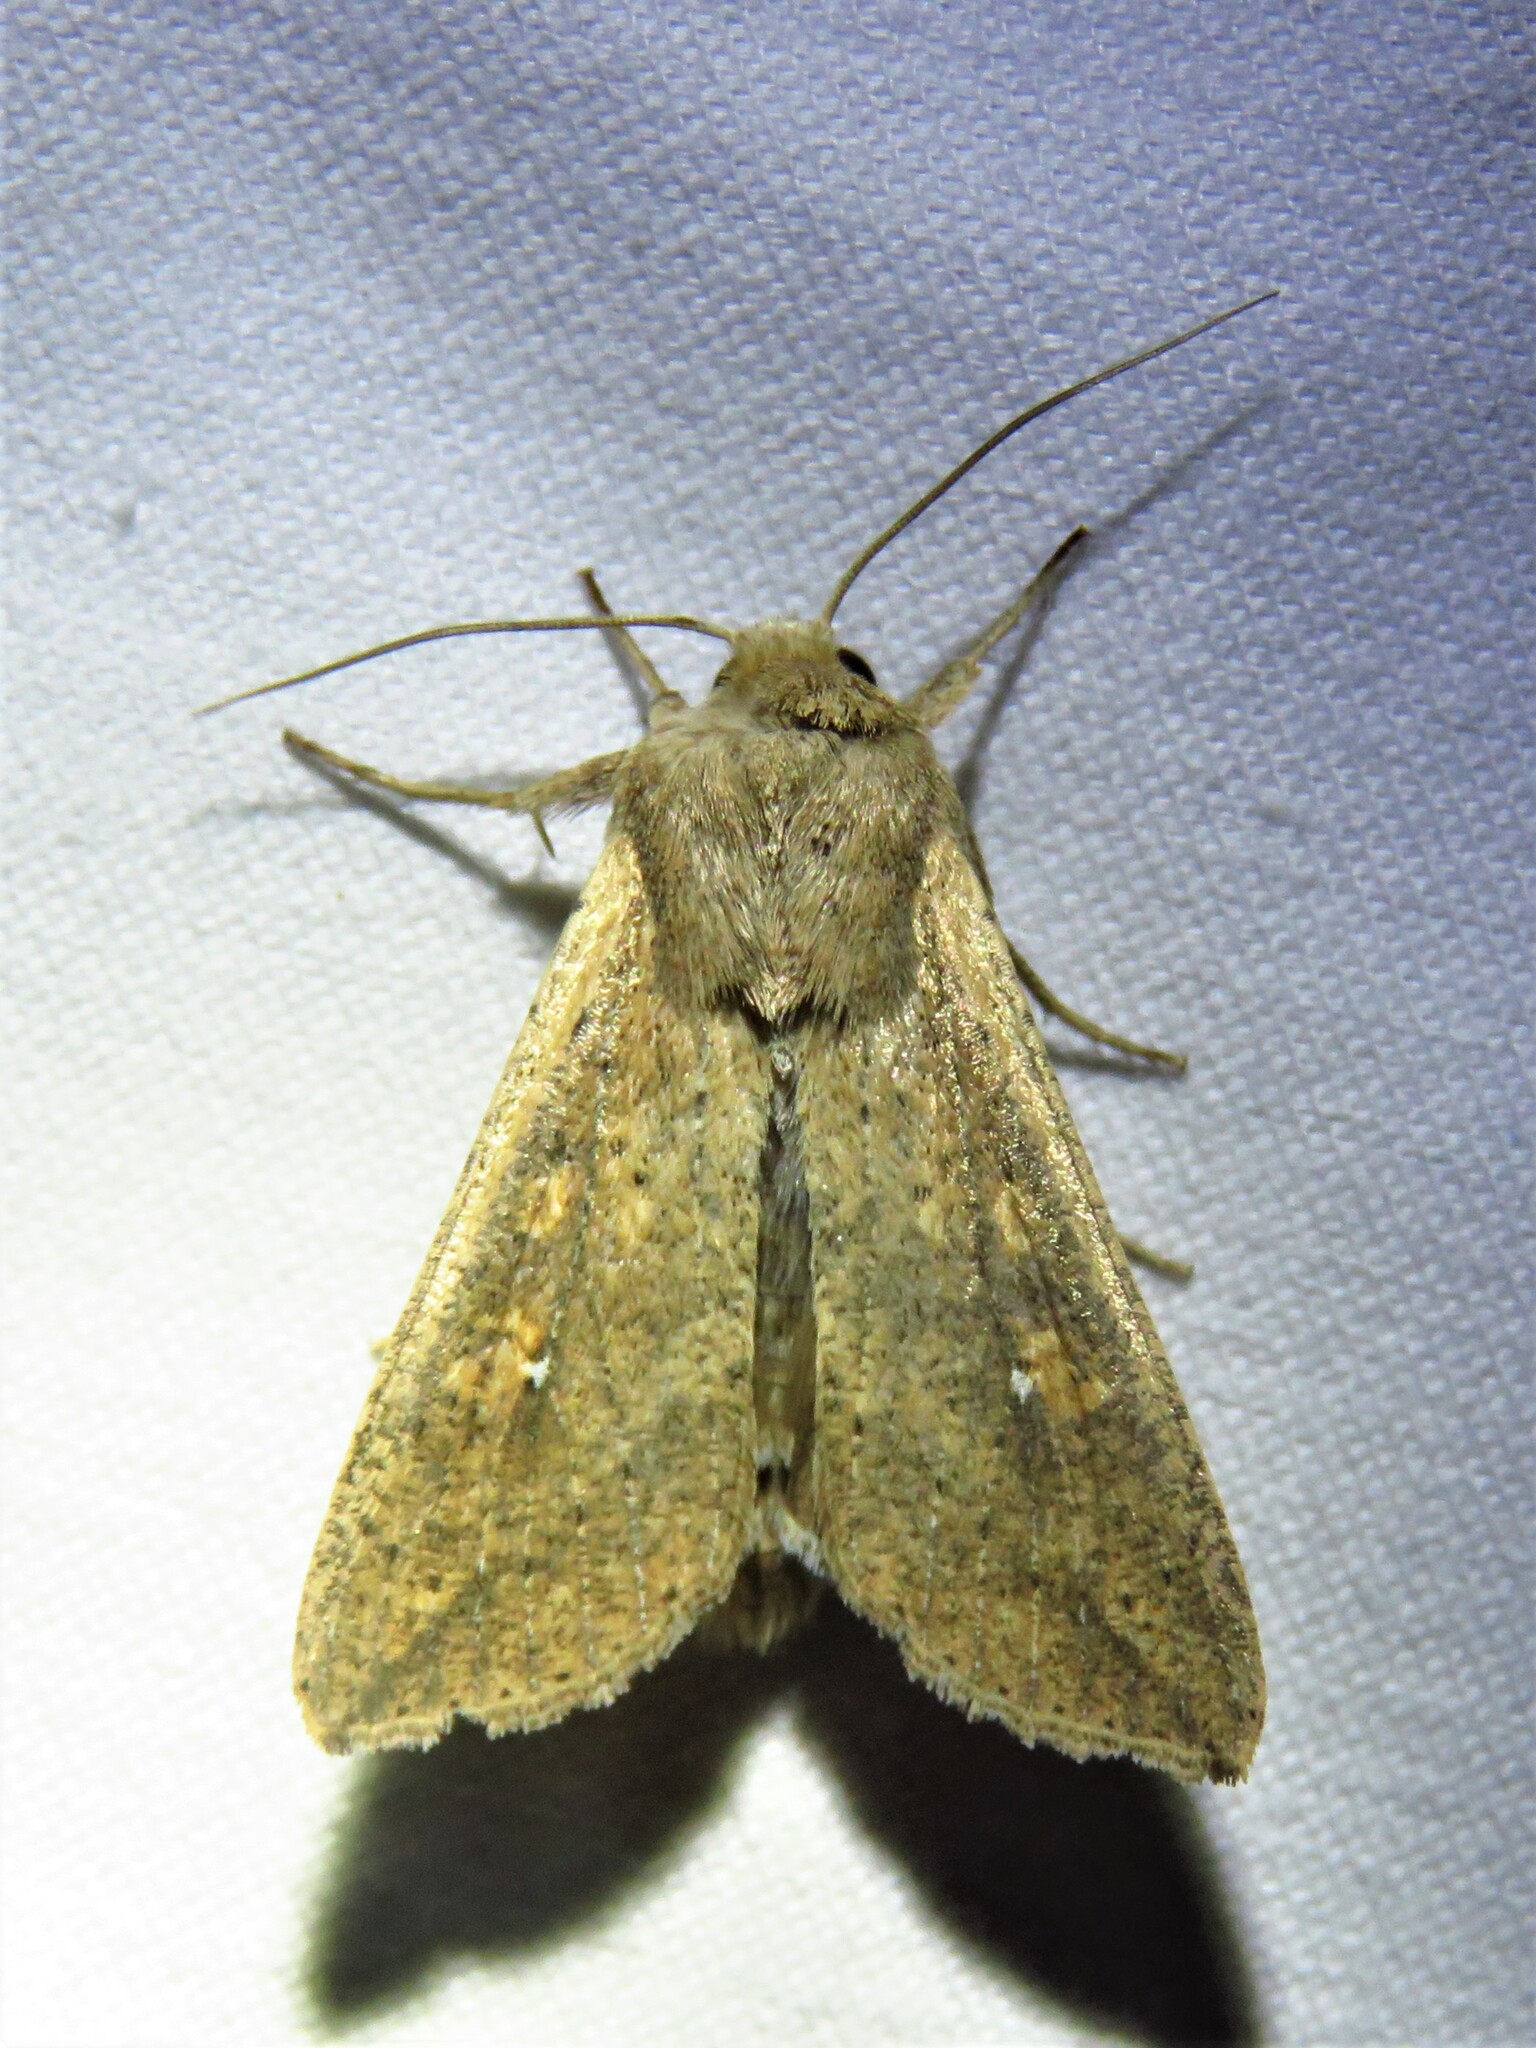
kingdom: Animalia
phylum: Arthropoda
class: Insecta
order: Lepidoptera
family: Noctuidae
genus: Mythimna
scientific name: Mythimna unipuncta
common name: White-speck
